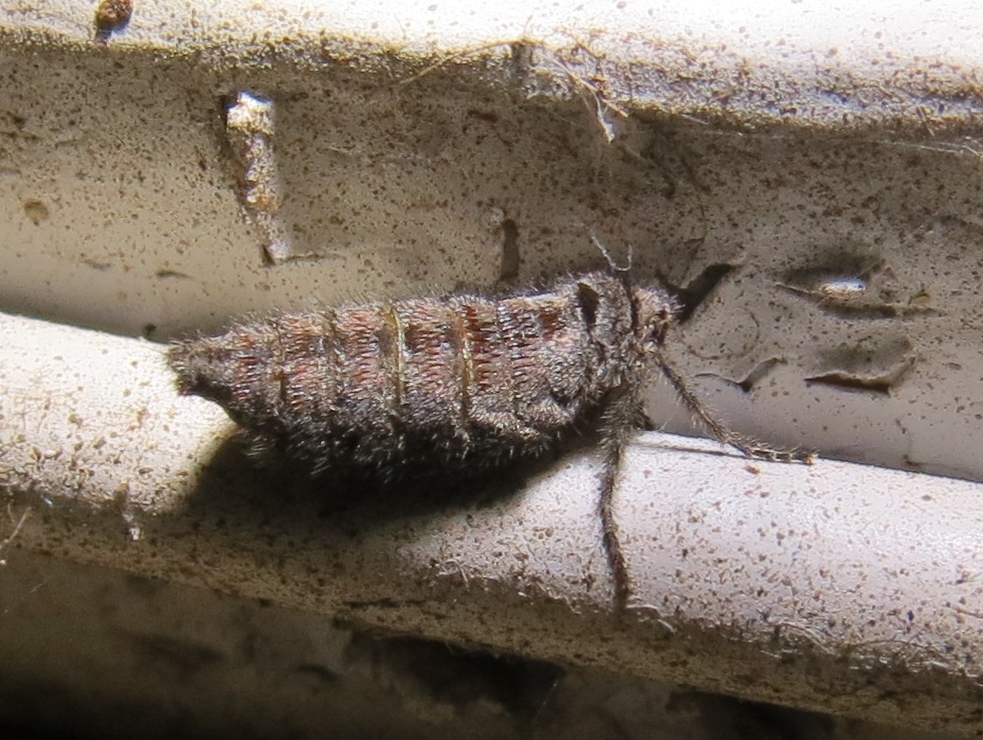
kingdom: Animalia
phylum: Arthropoda
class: Insecta
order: Lepidoptera
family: Geometridae
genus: Paleacrita
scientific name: Paleacrita vernata
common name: Spring cankerworm
